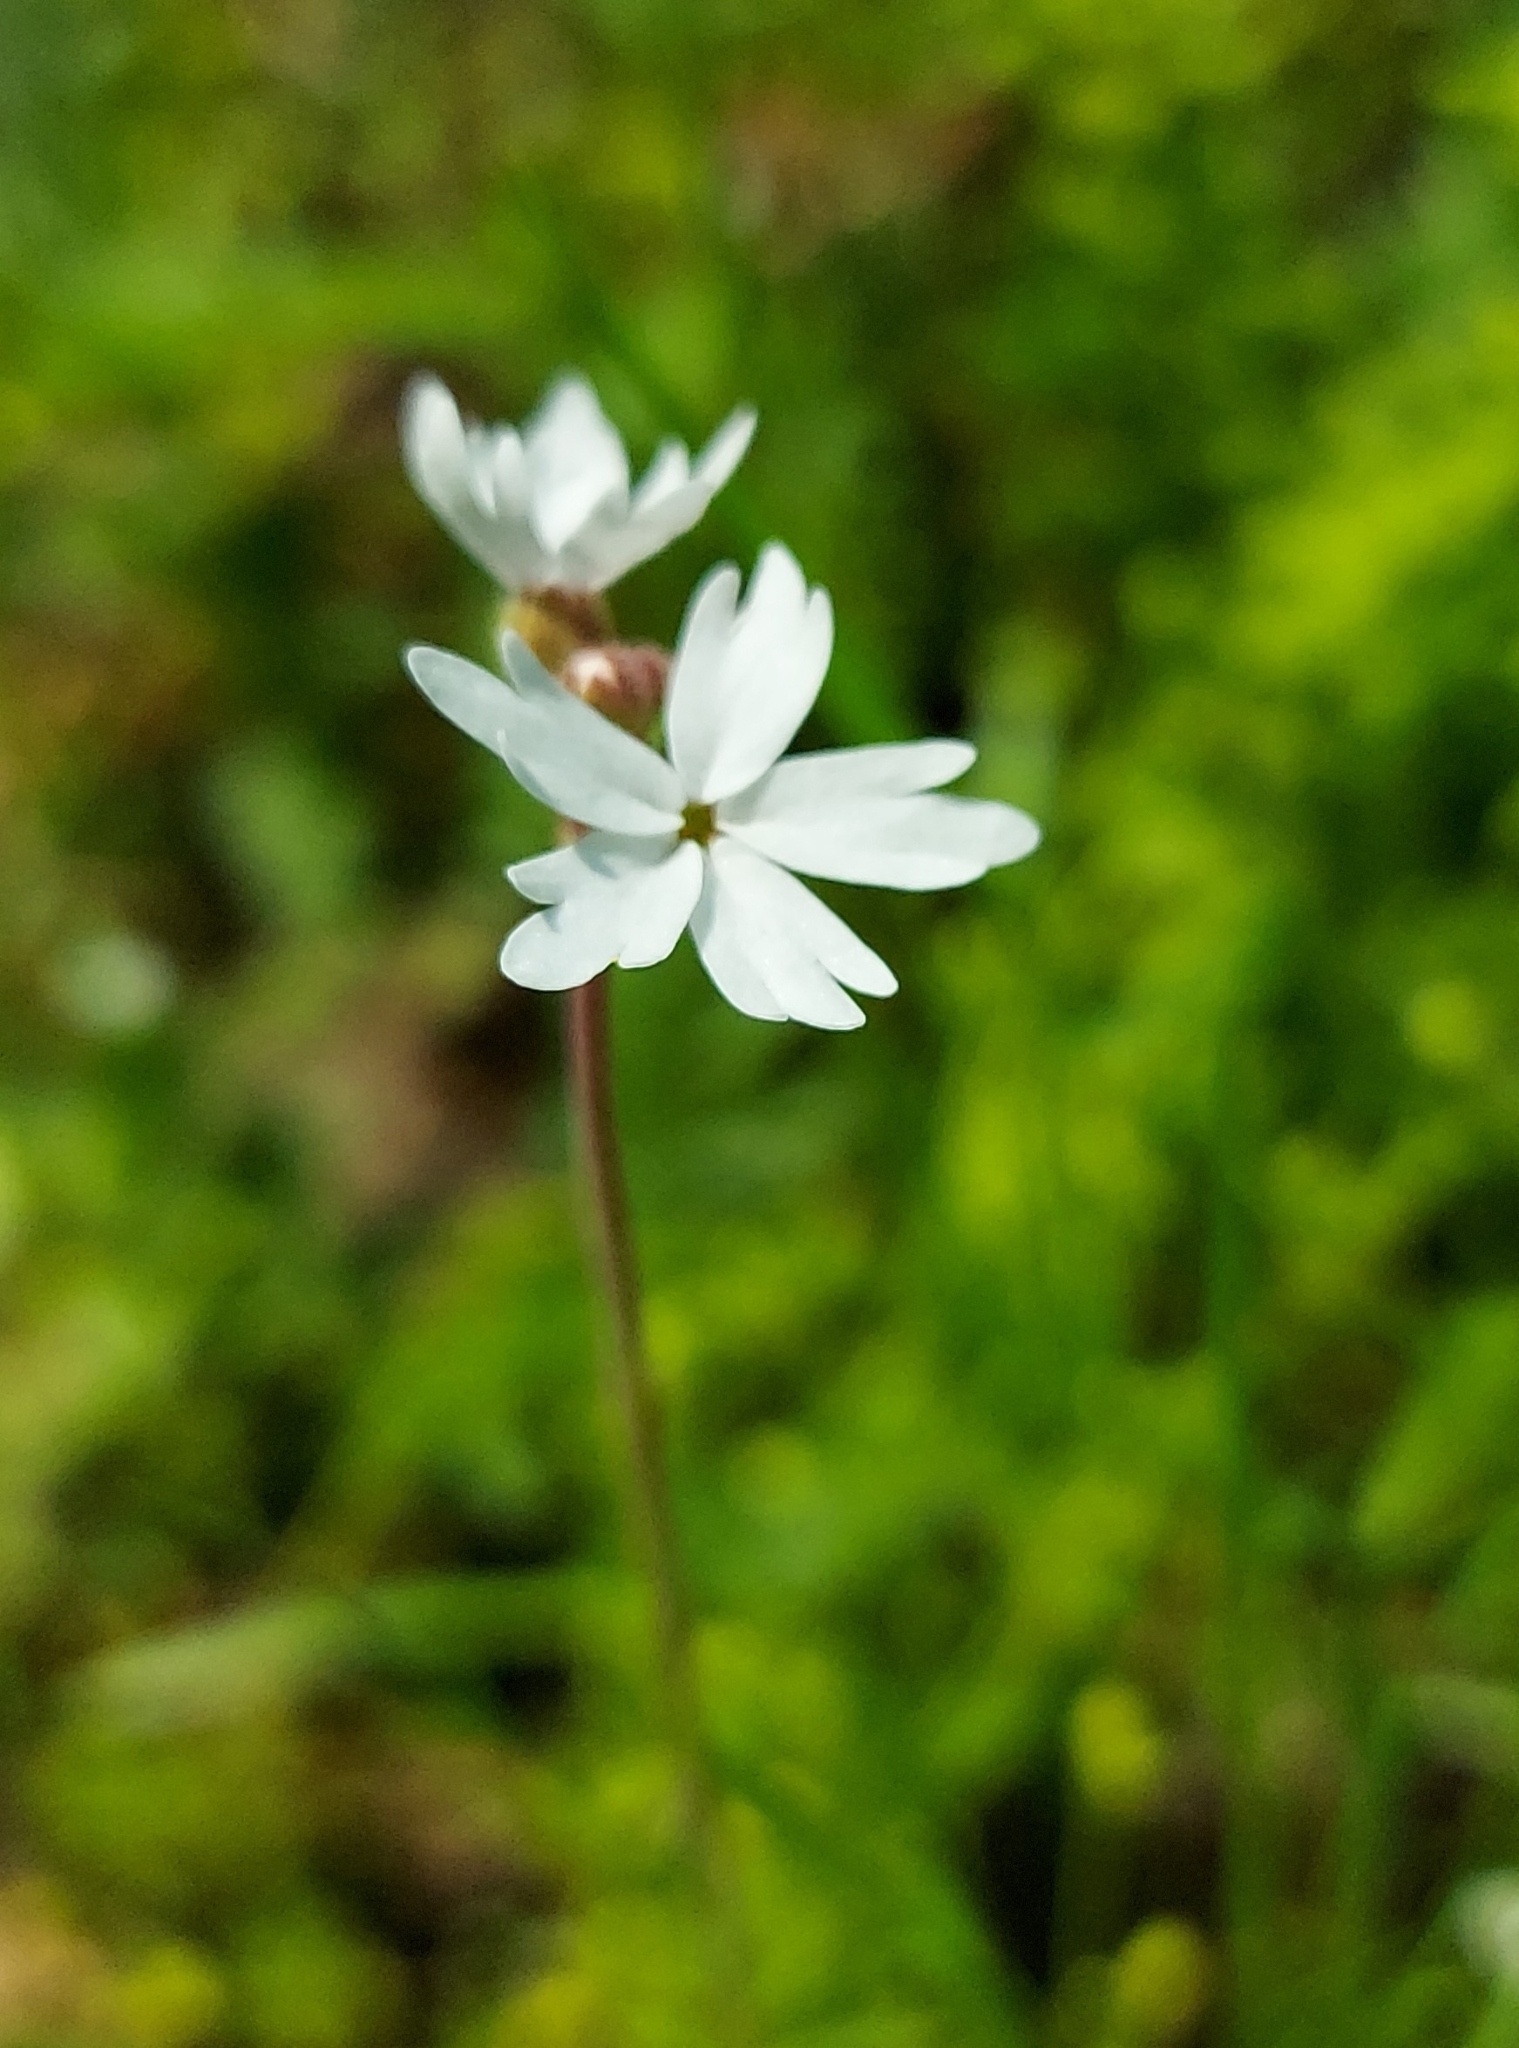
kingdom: Plantae
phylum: Tracheophyta
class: Magnoliopsida
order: Saxifragales
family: Saxifragaceae
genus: Lithophragma
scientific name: Lithophragma parviflorum
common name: Small-flowered fringe-cup
